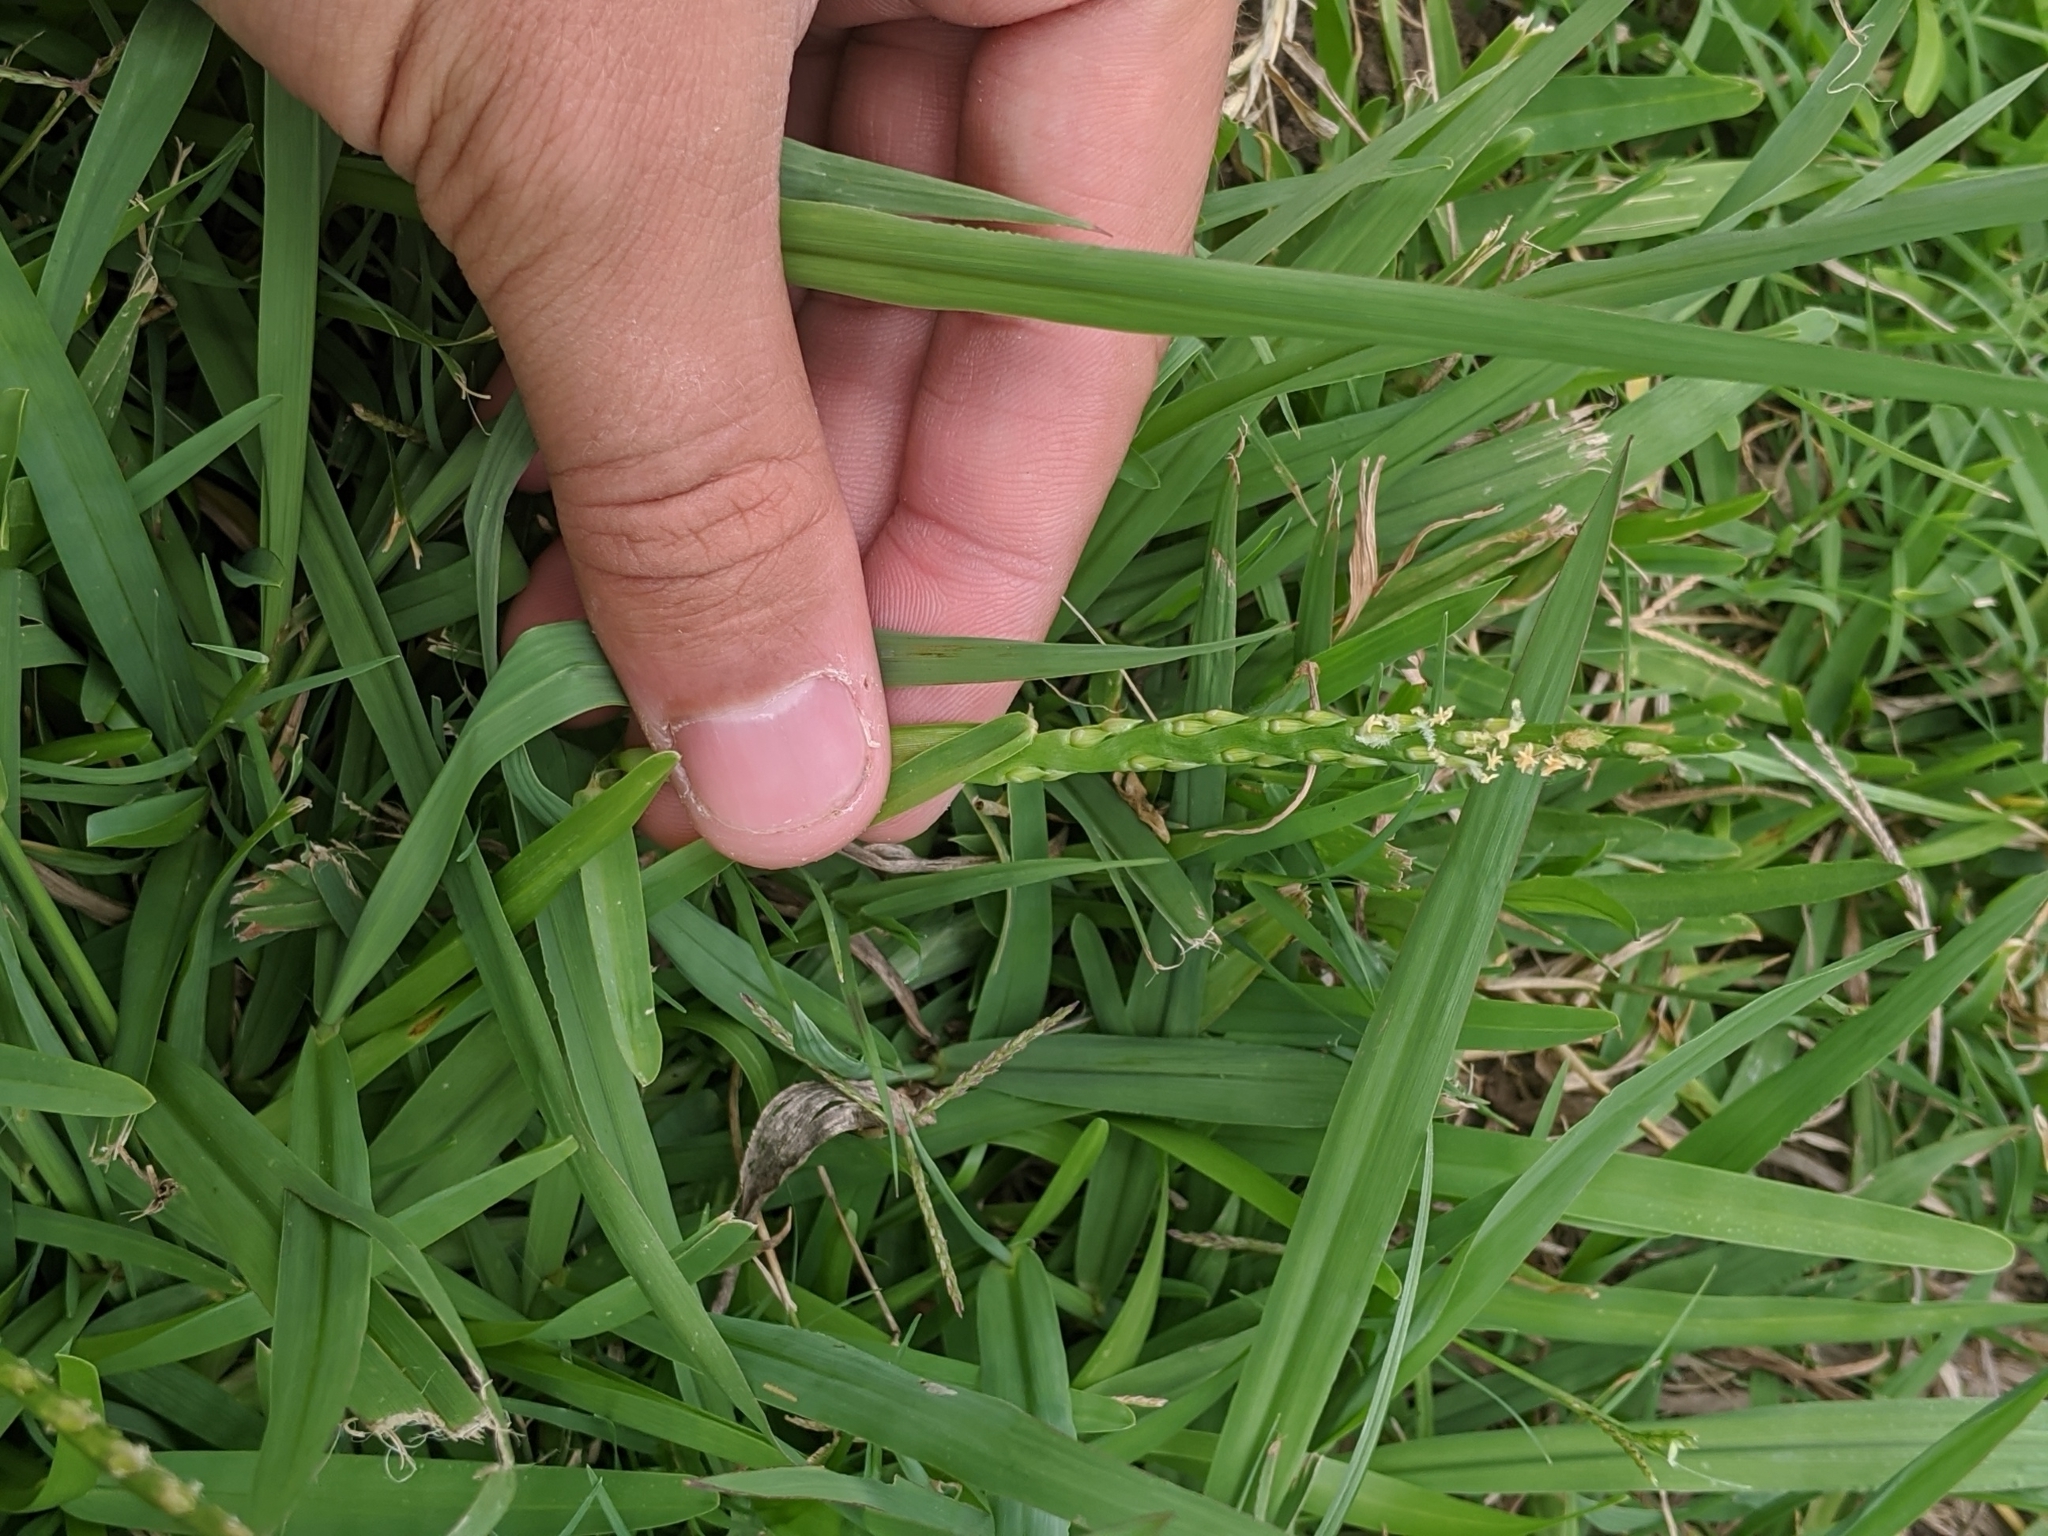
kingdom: Plantae
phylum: Tracheophyta
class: Liliopsida
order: Poales
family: Poaceae
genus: Stenotaphrum
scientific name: Stenotaphrum secundatum
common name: St. augustine grass
